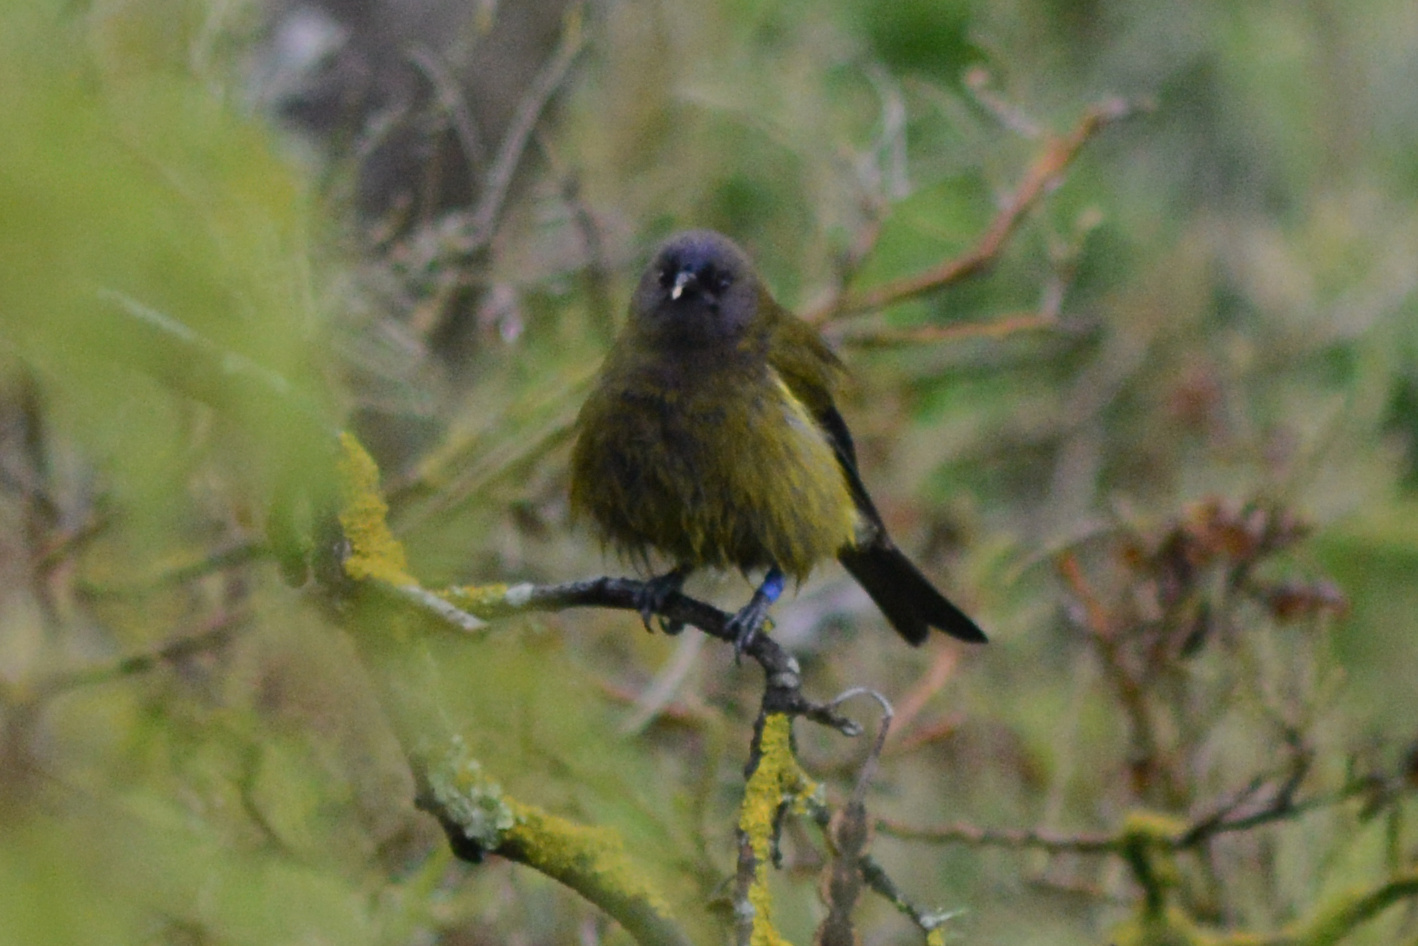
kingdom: Animalia
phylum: Chordata
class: Aves
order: Passeriformes
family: Meliphagidae
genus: Anthornis
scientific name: Anthornis melanura
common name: New zealand bellbird
